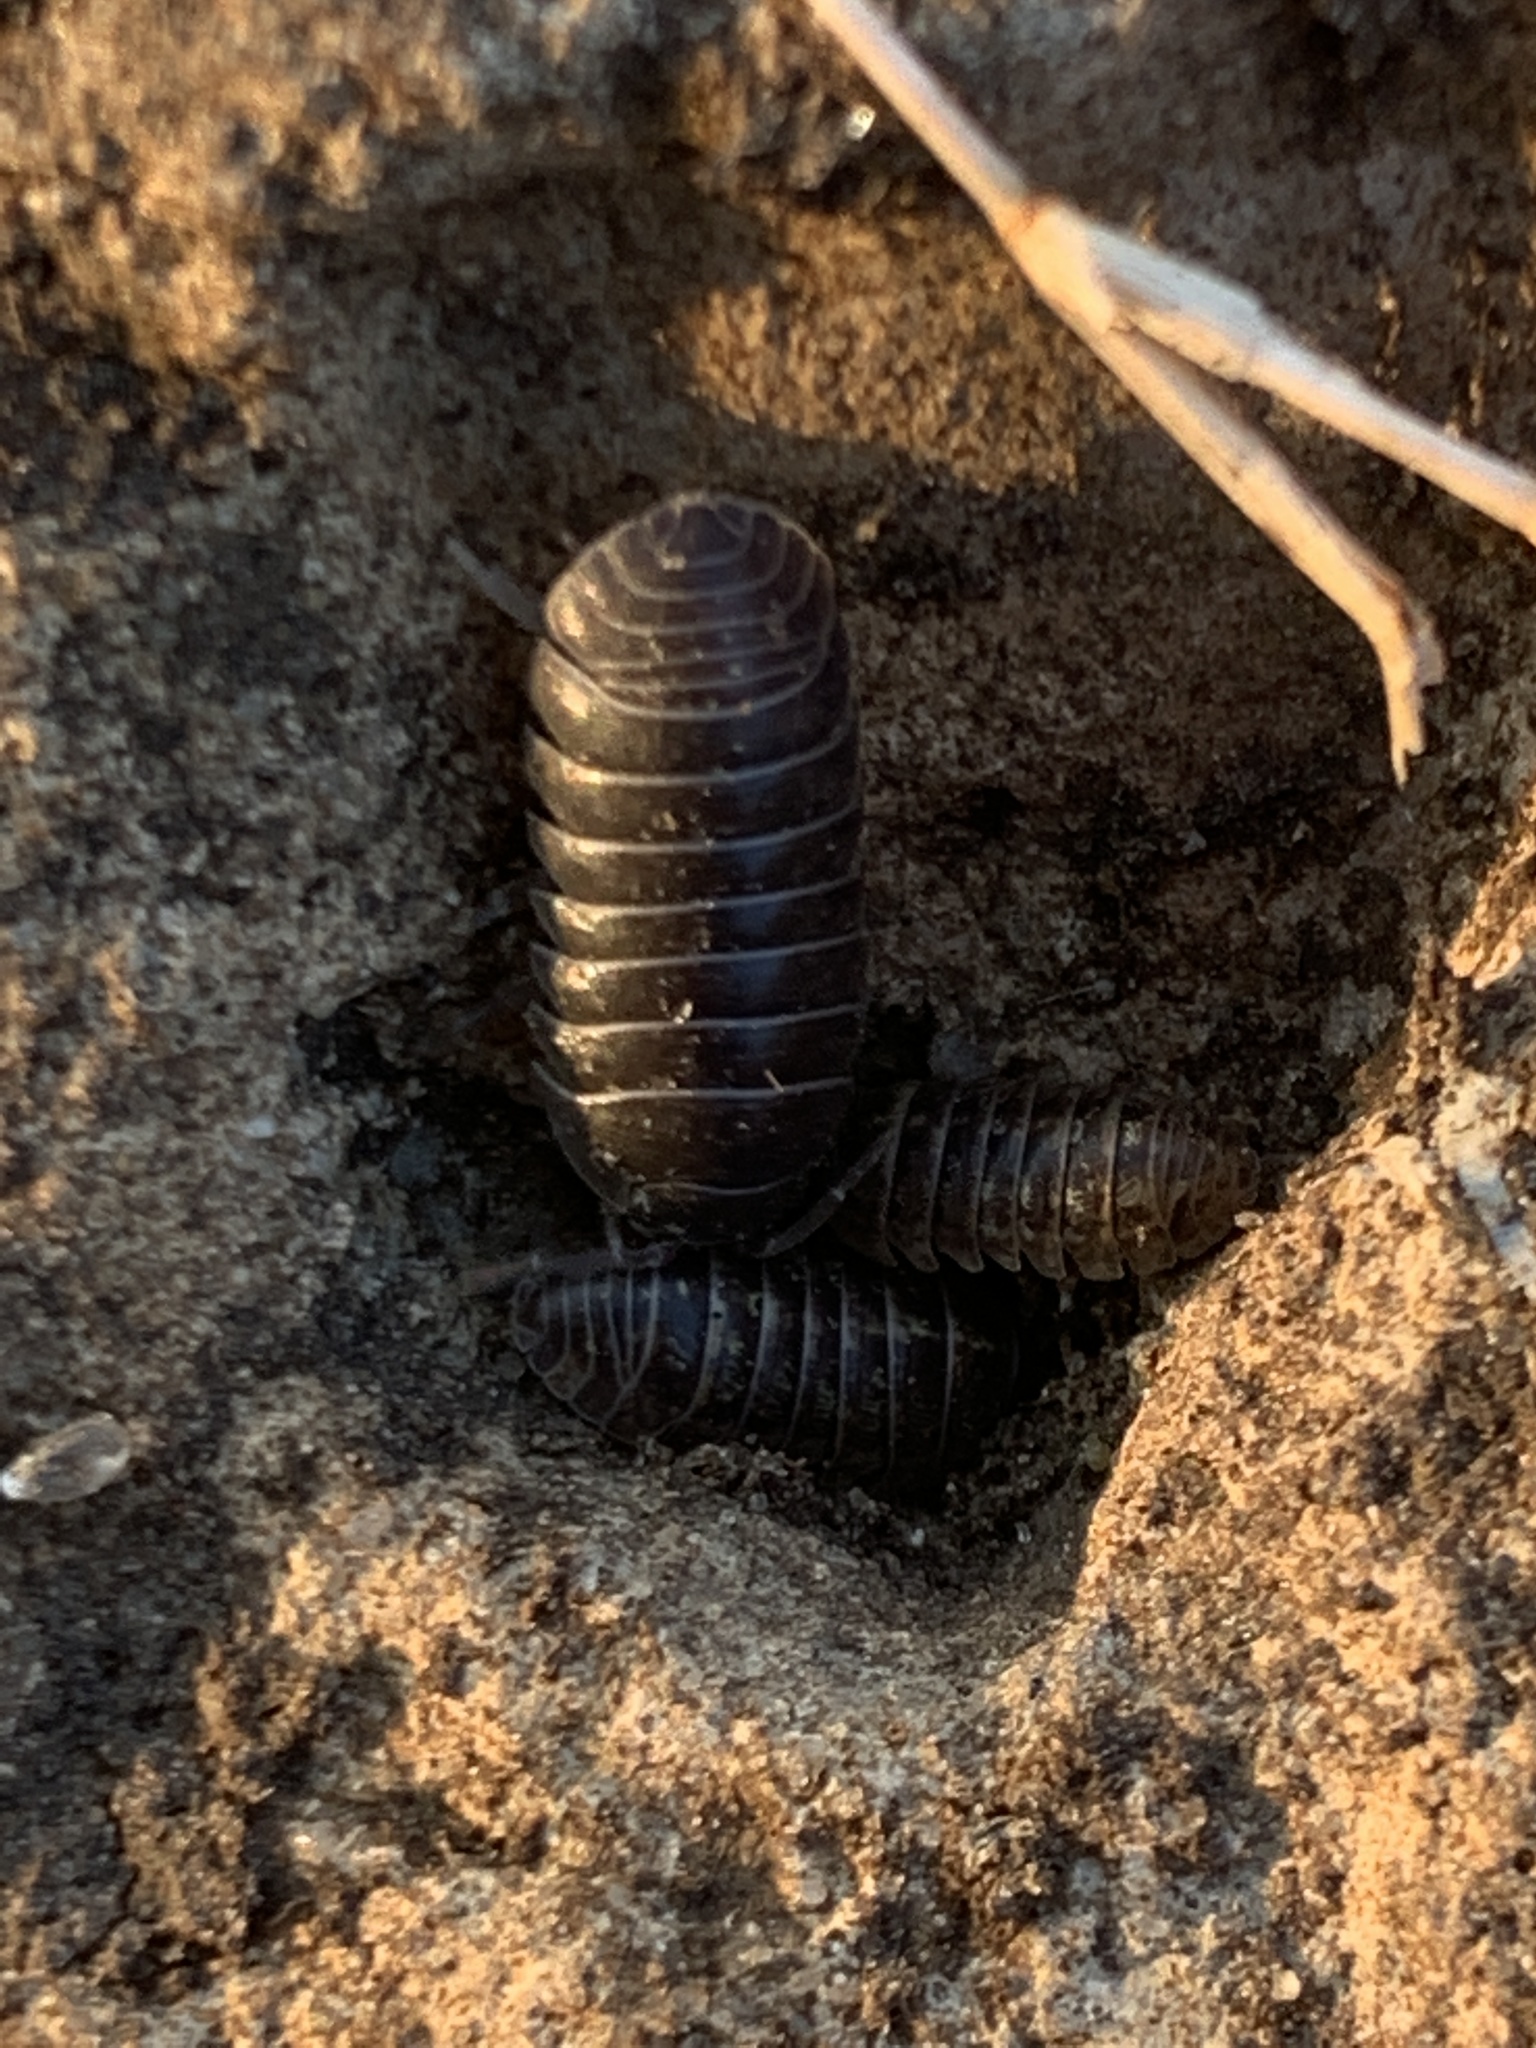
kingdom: Animalia
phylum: Arthropoda
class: Malacostraca
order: Isopoda
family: Armadillidiidae
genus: Armadillidium
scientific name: Armadillidium vulgare
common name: Common pill woodlouse
